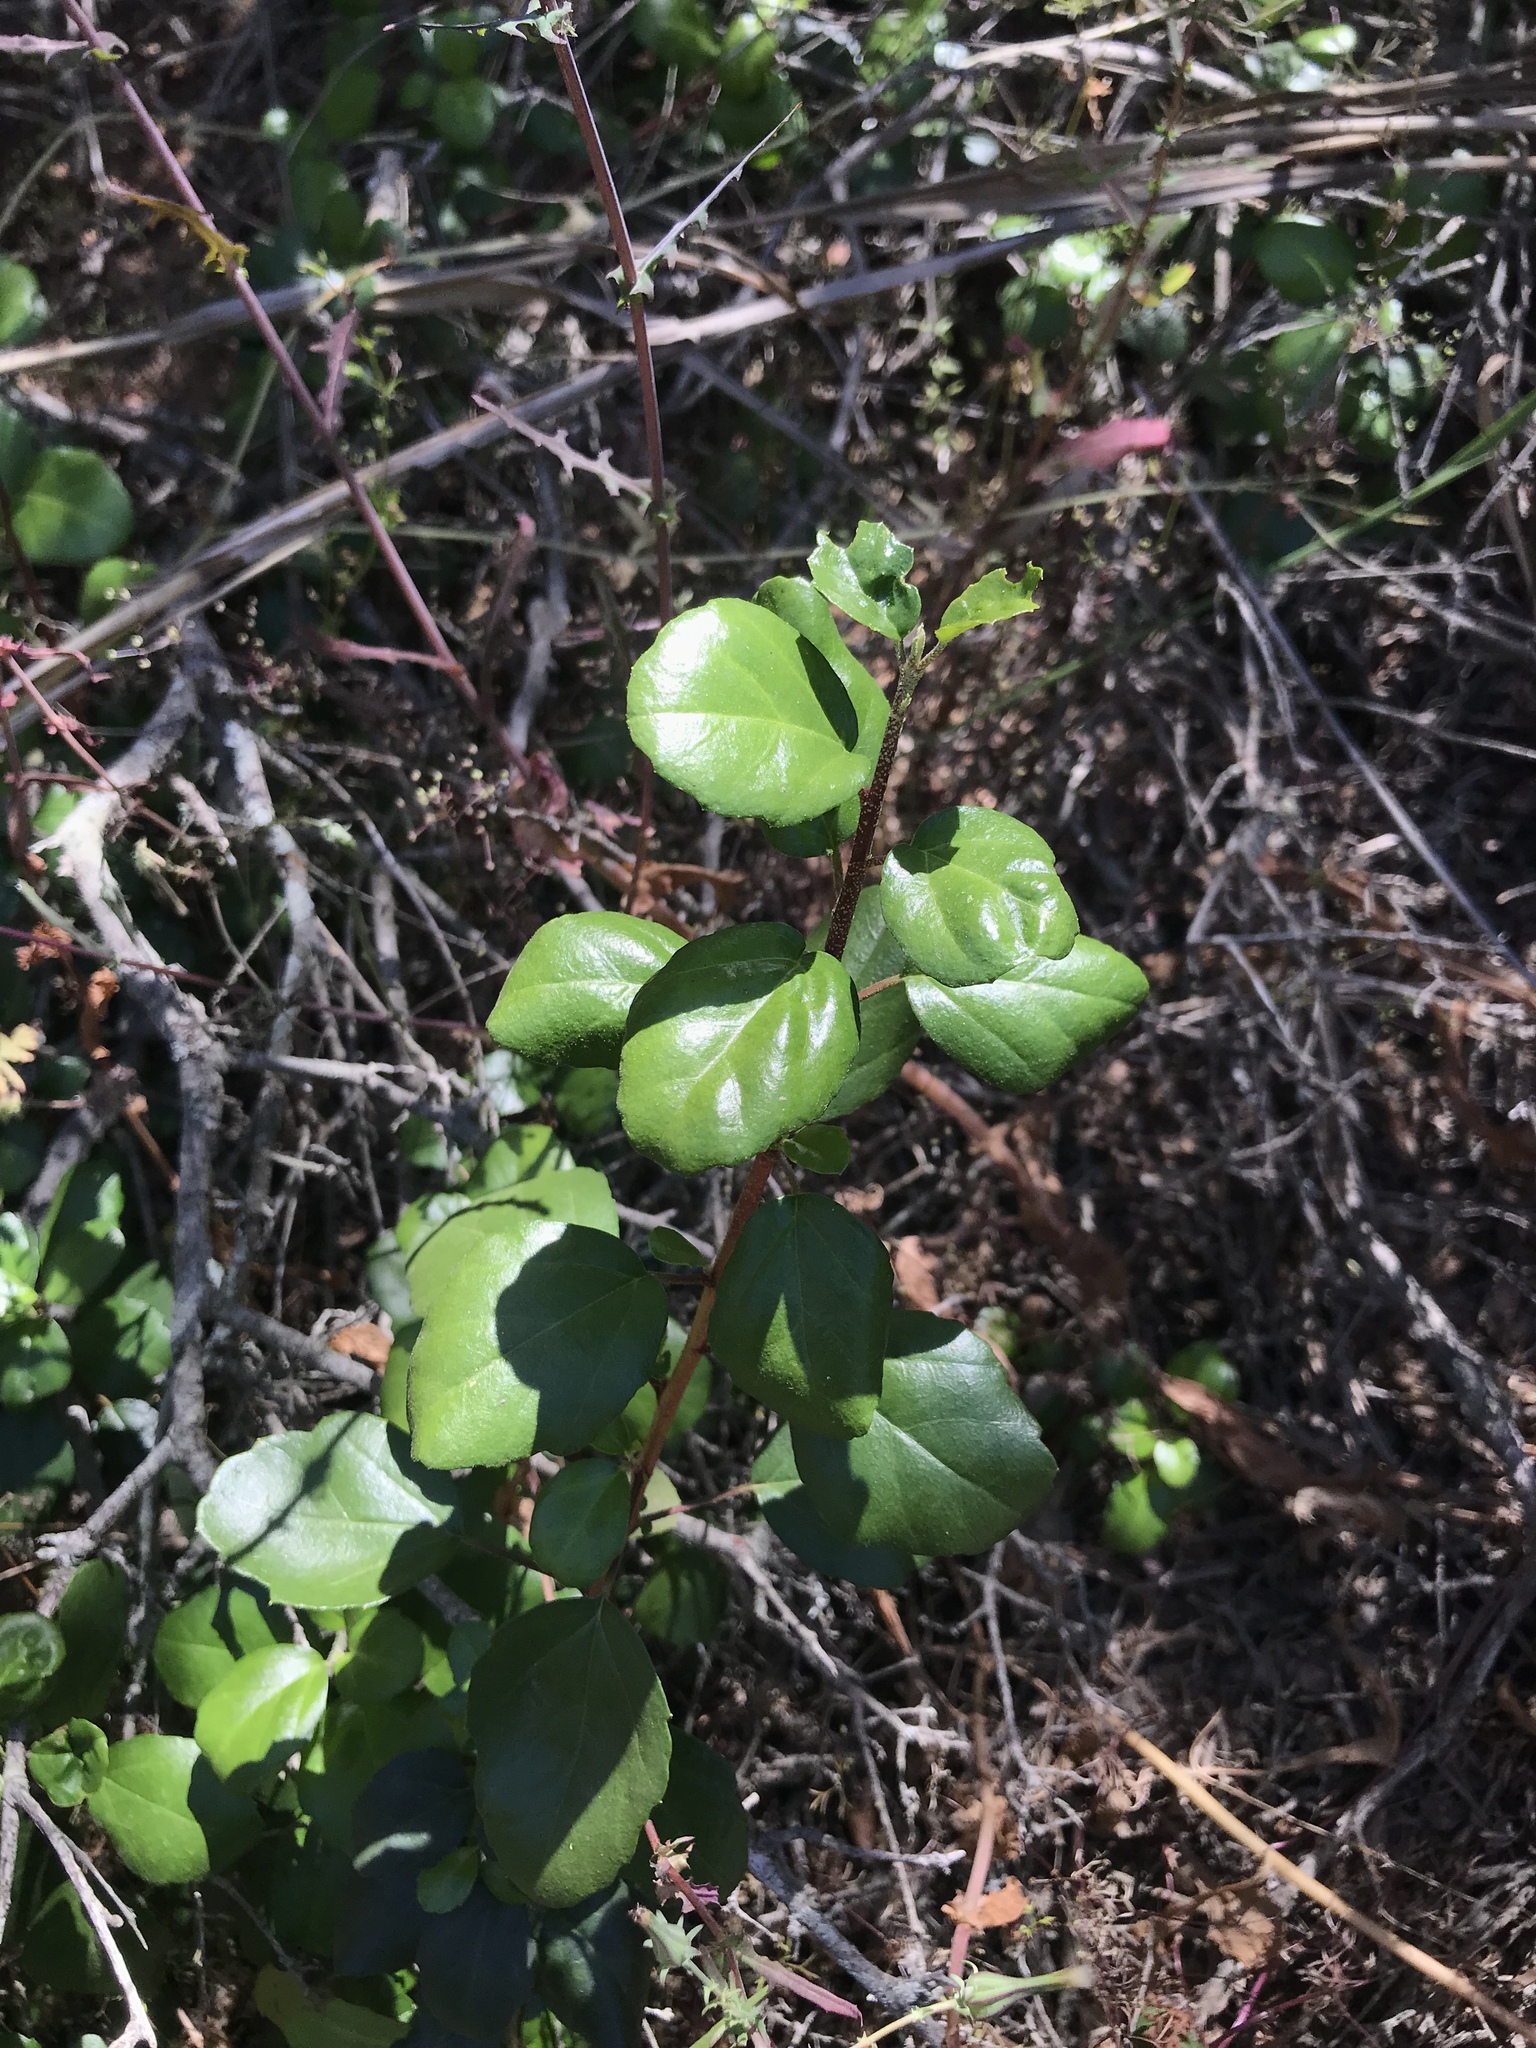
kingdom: Plantae
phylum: Tracheophyta
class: Magnoliopsida
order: Saxifragales
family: Grossulariaceae
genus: Ribes
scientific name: Ribes viburnifolium
